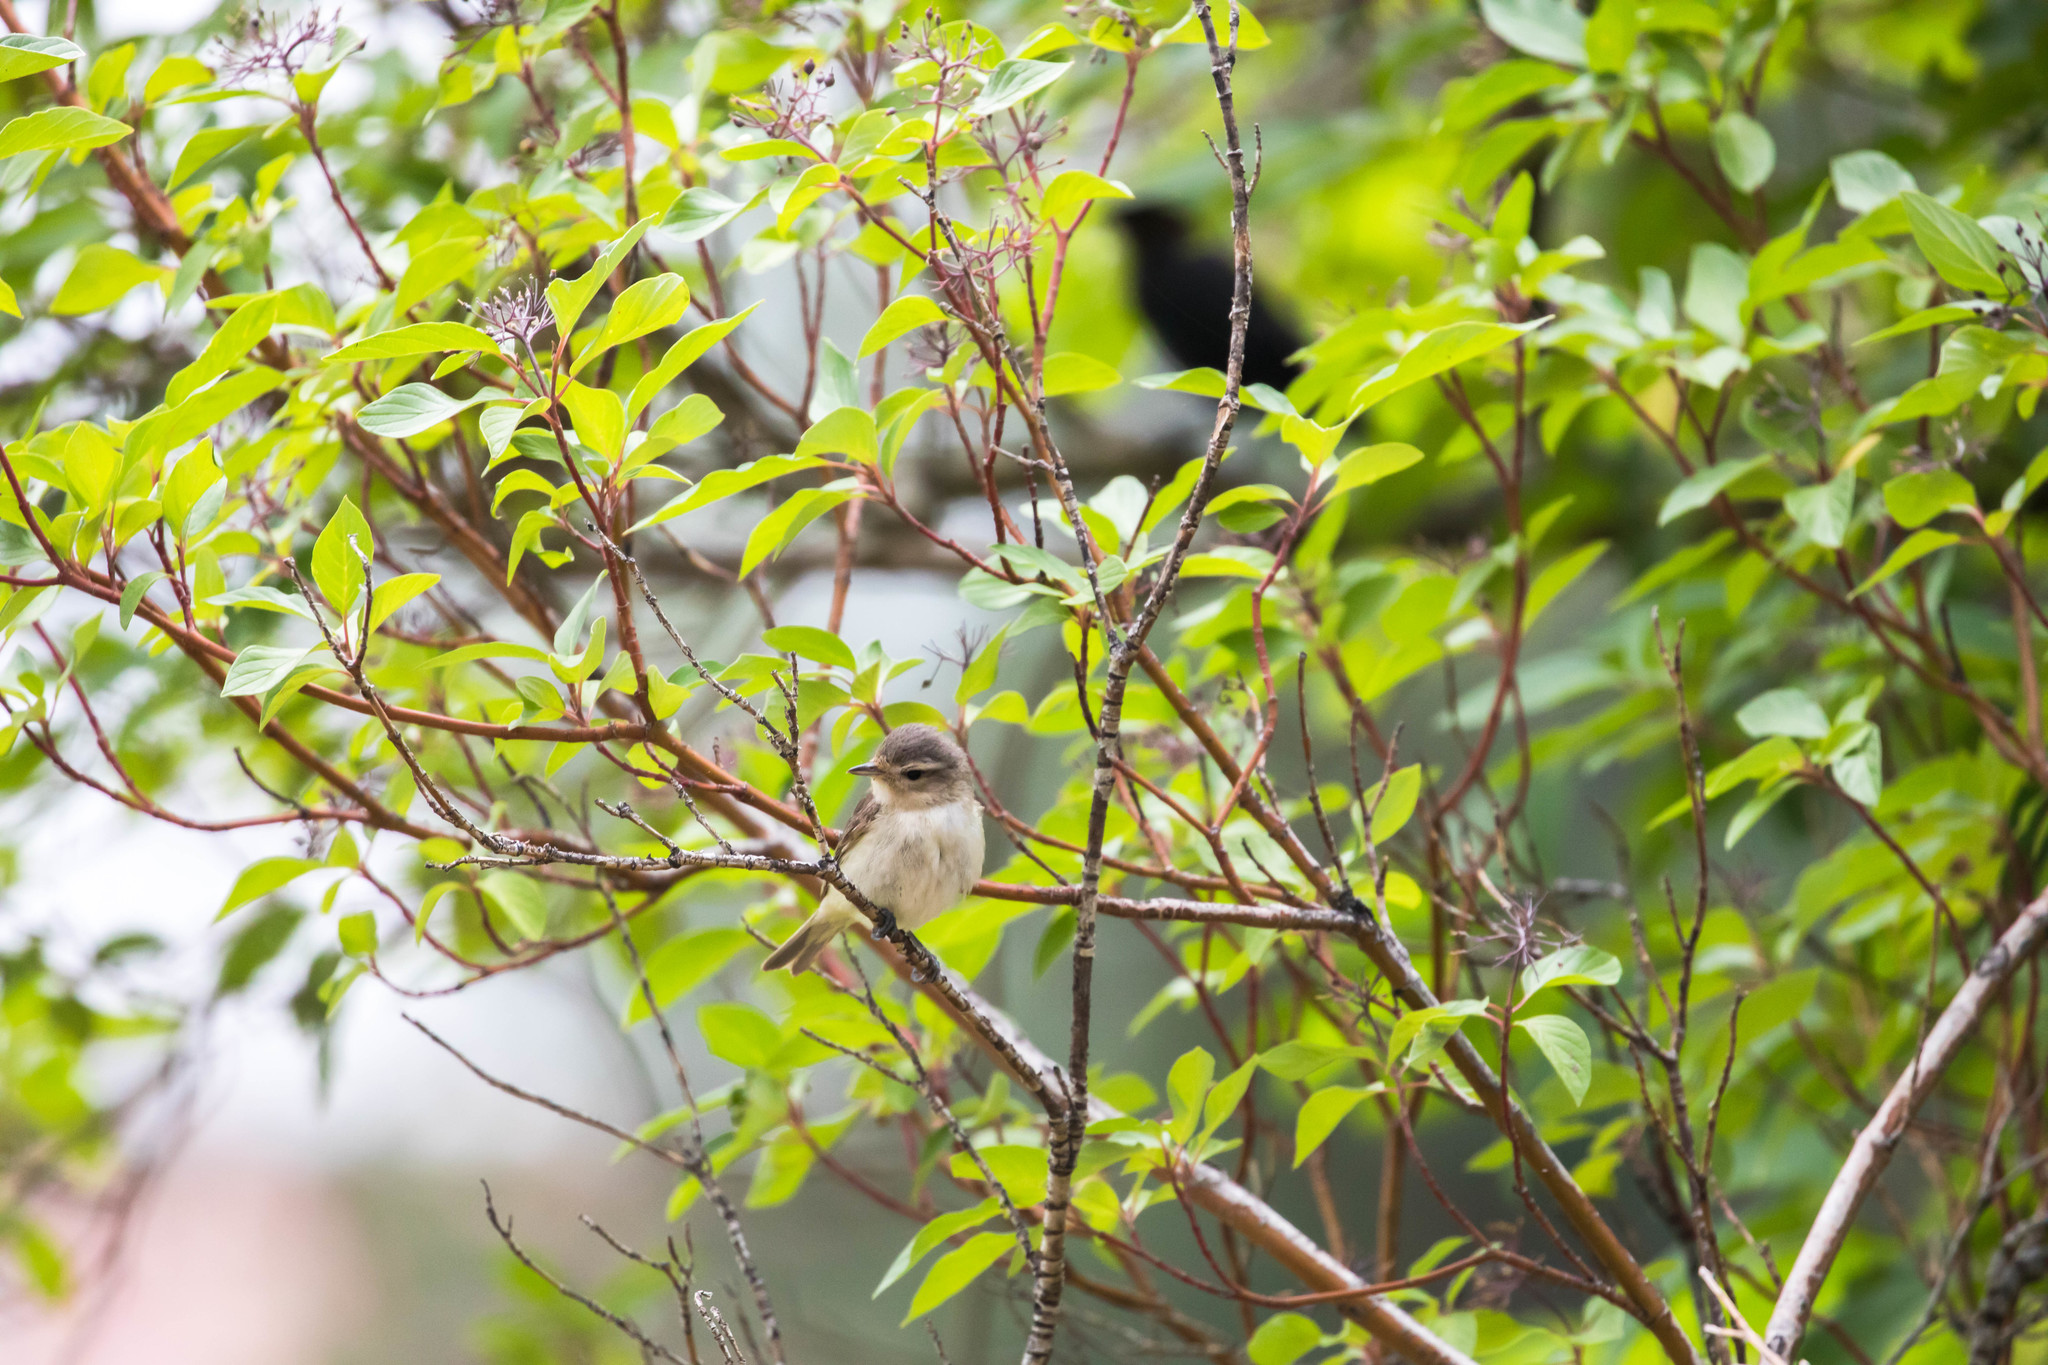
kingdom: Animalia
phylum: Chordata
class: Aves
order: Passeriformes
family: Vireonidae
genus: Vireo
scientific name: Vireo gilvus
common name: Warbling vireo
